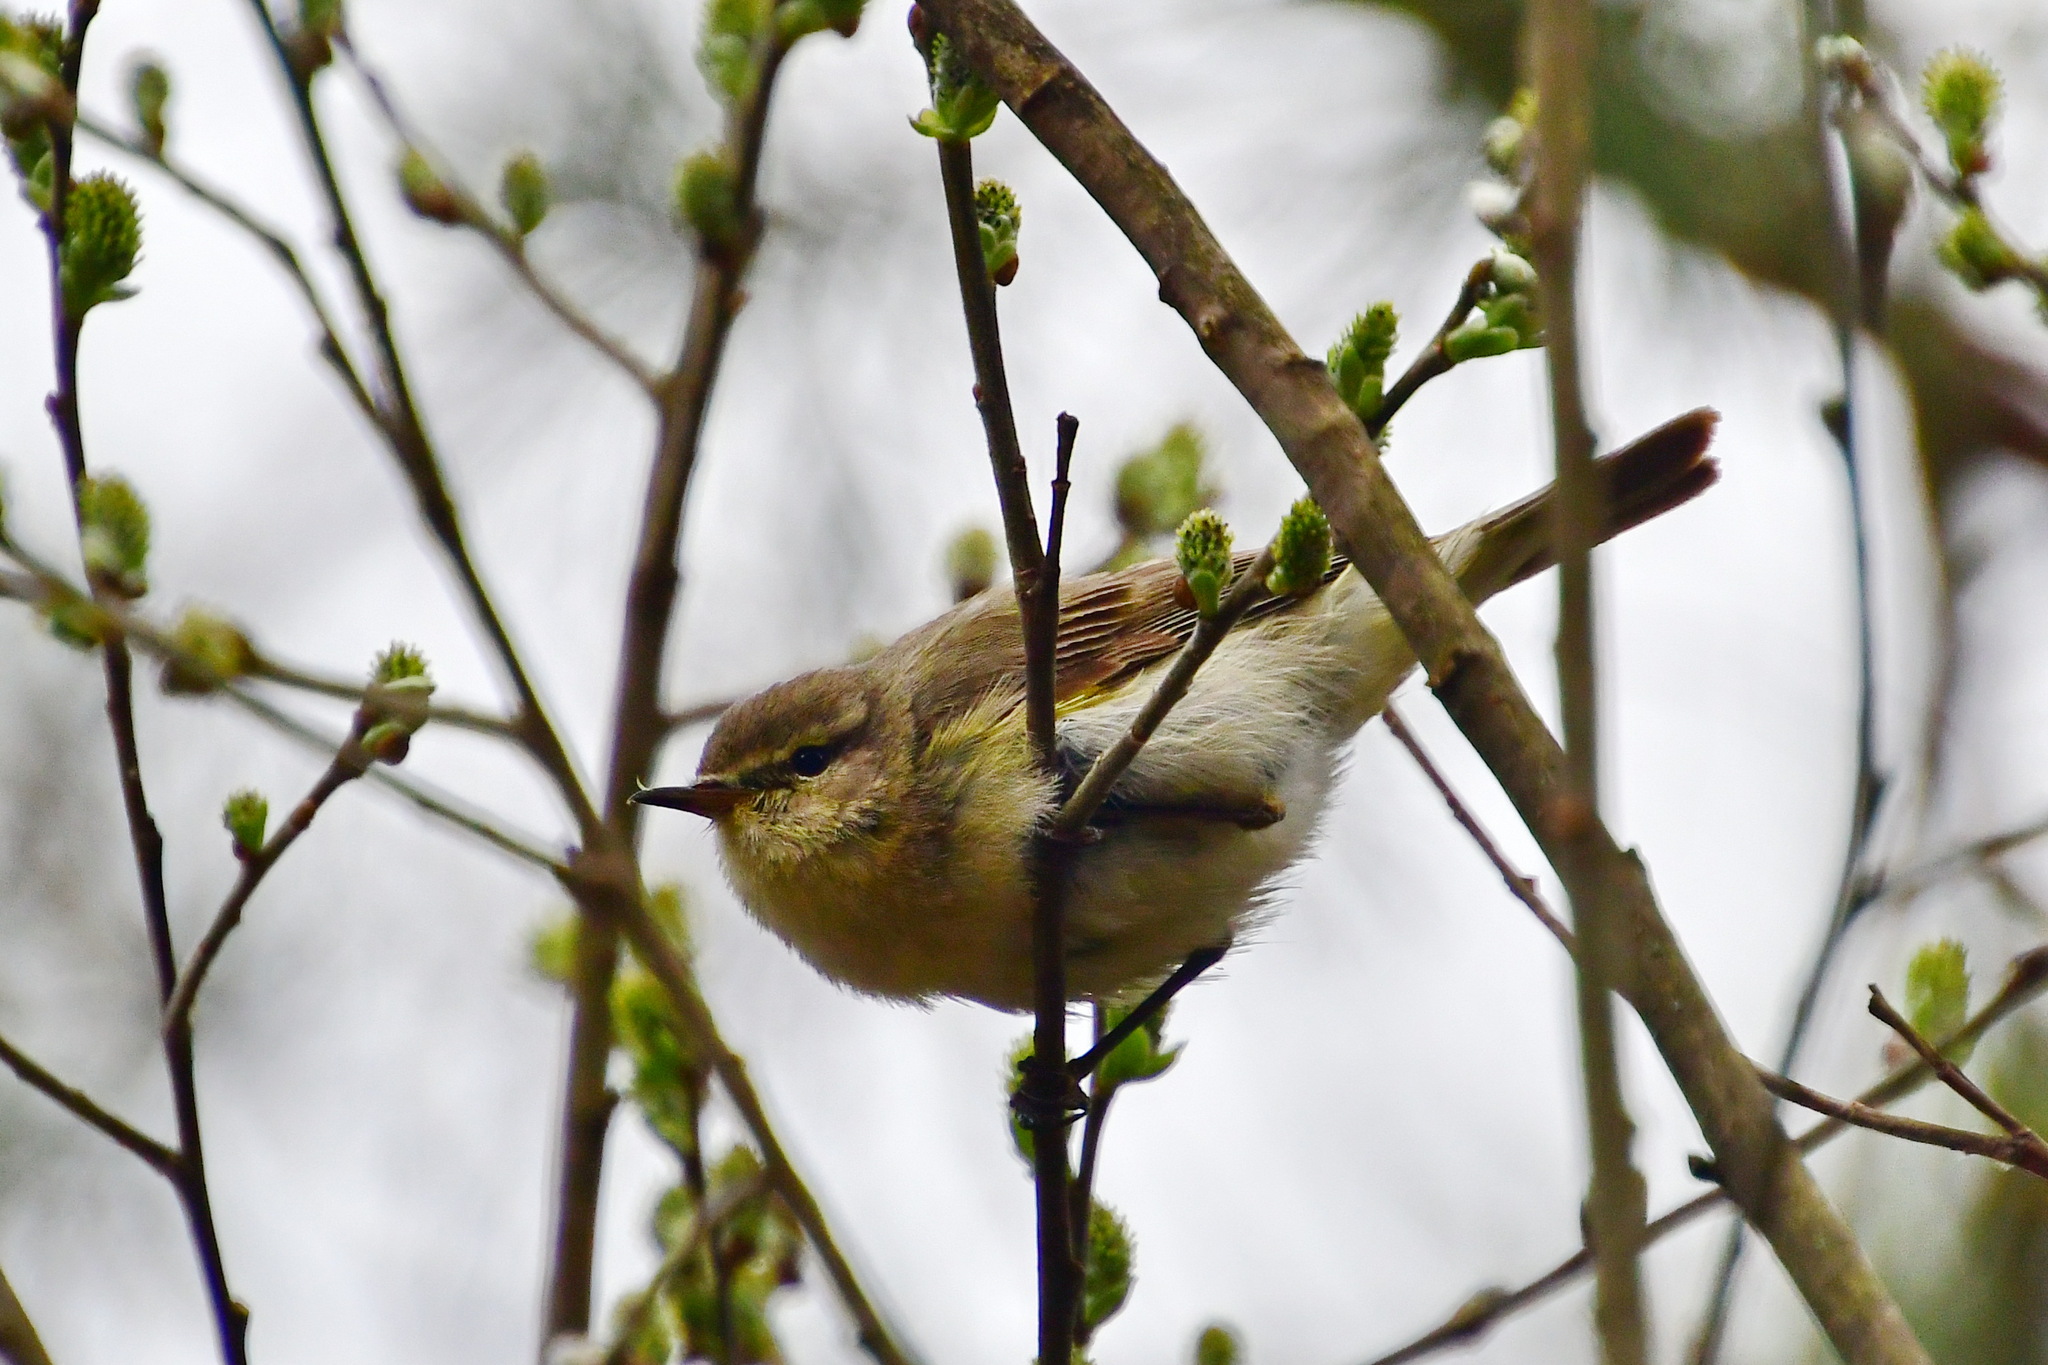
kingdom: Animalia
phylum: Chordata
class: Aves
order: Passeriformes
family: Phylloscopidae
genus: Phylloscopus
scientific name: Phylloscopus trochilus
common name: Willow warbler
